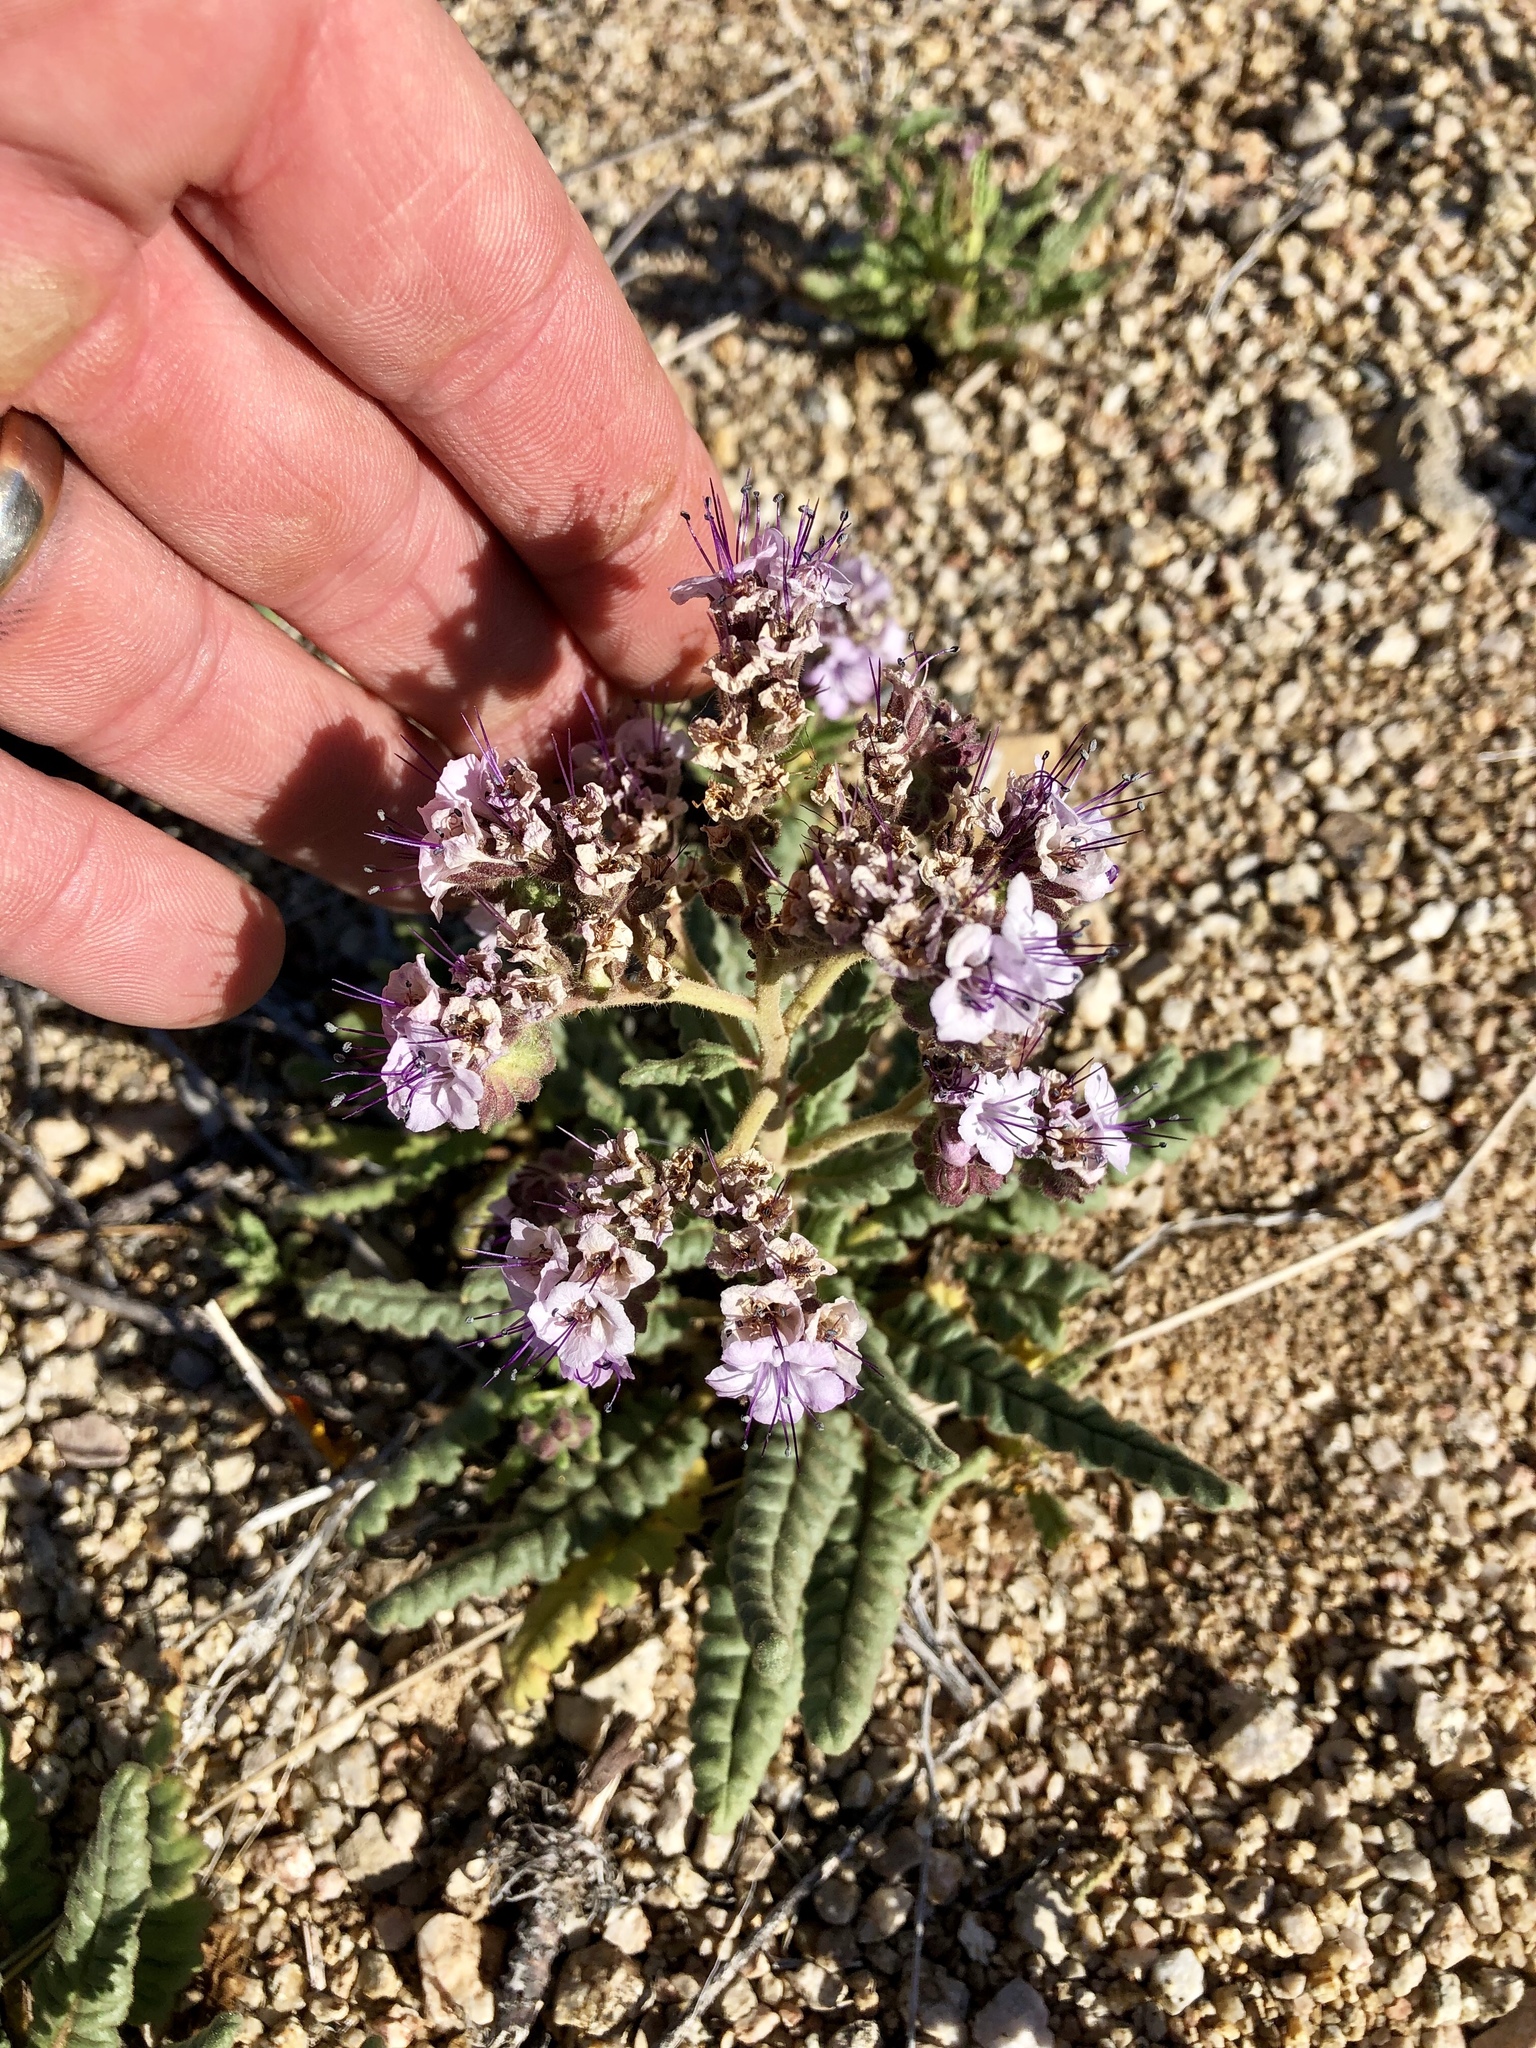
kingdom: Plantae
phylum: Tracheophyta
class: Magnoliopsida
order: Boraginales
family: Hydrophyllaceae
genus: Phacelia
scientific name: Phacelia integrifolia
